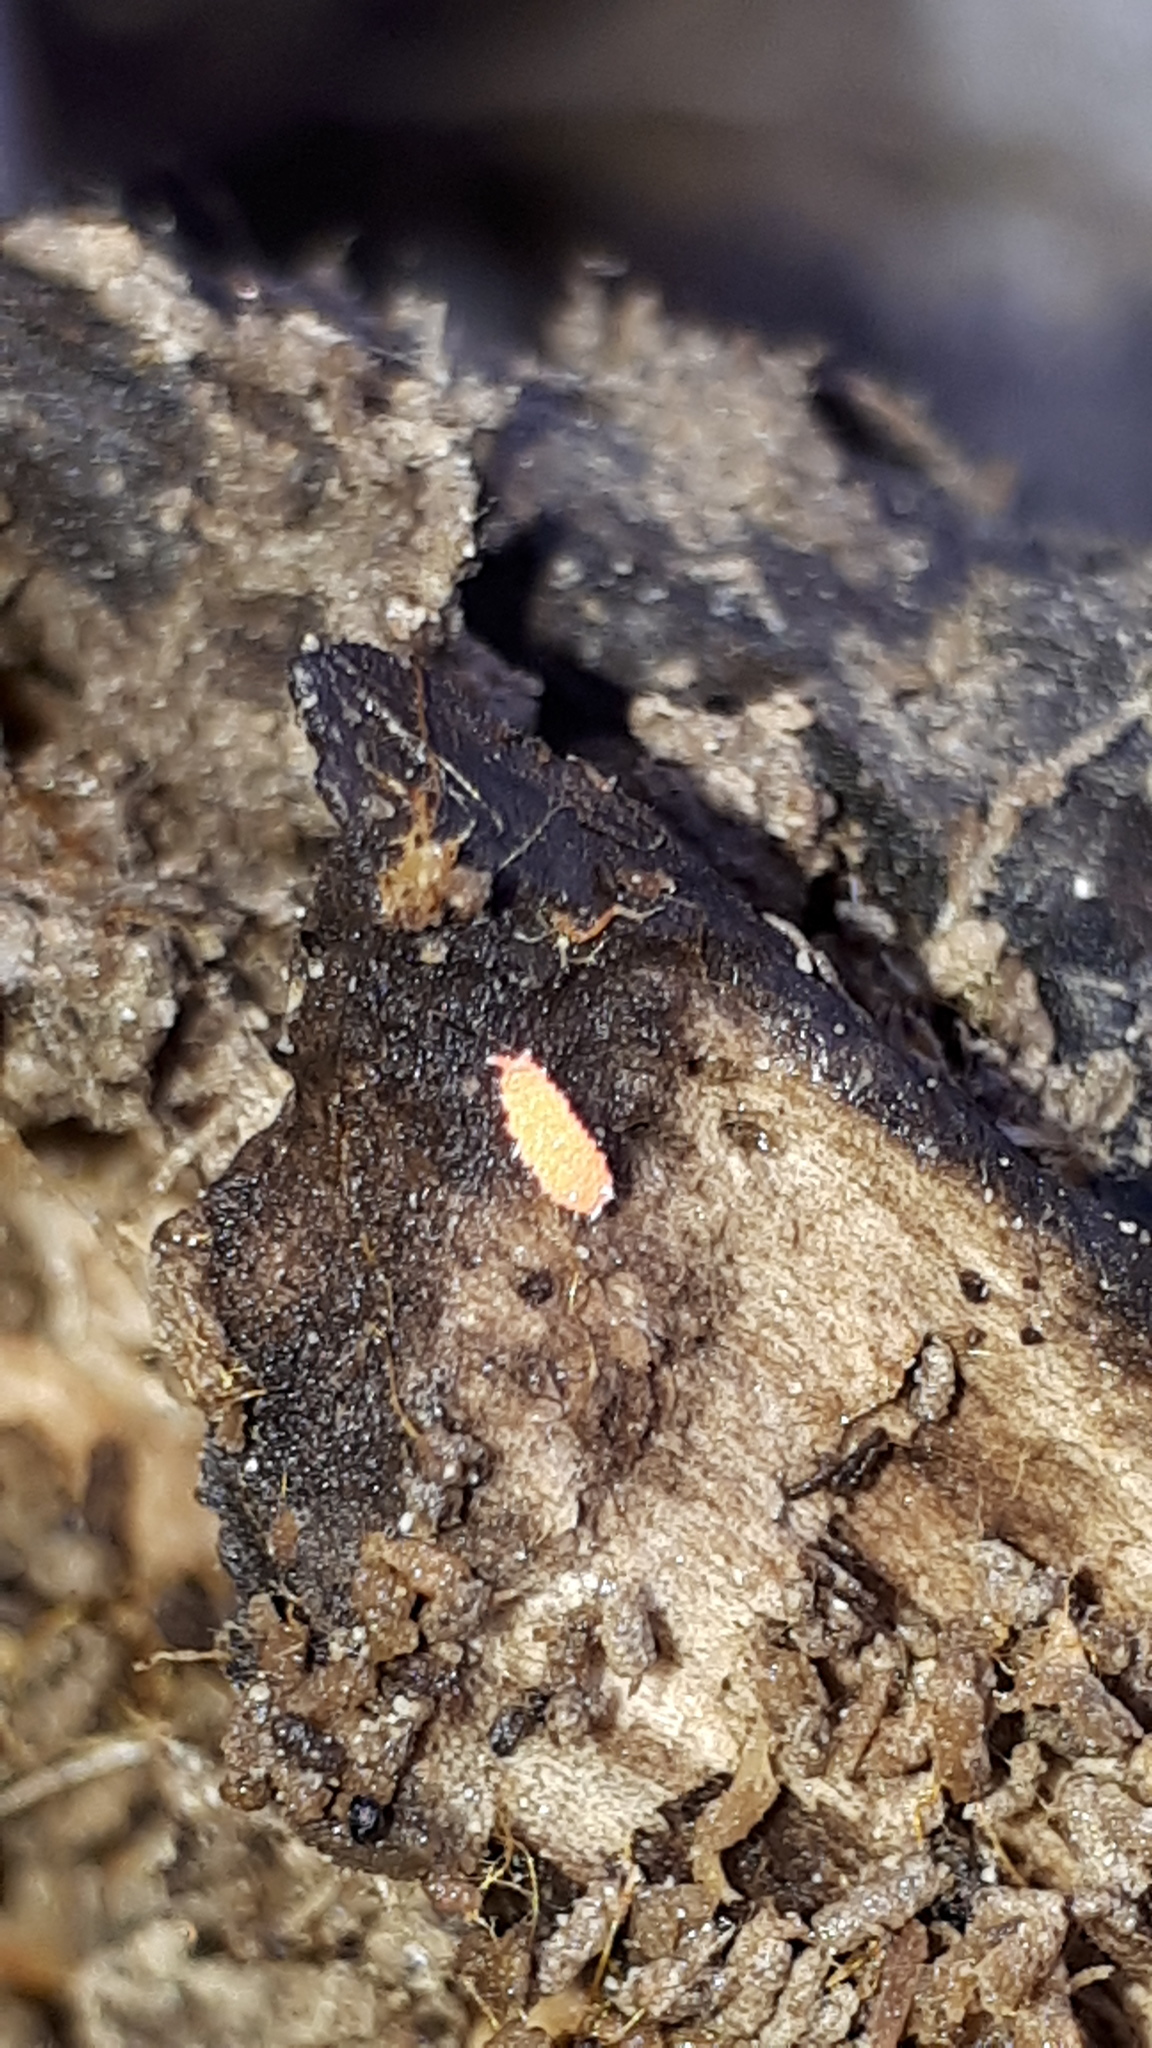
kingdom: Animalia
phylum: Arthropoda
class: Collembola
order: Poduromorpha
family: Neanuridae
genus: Bilobella
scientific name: Bilobella braunerae
